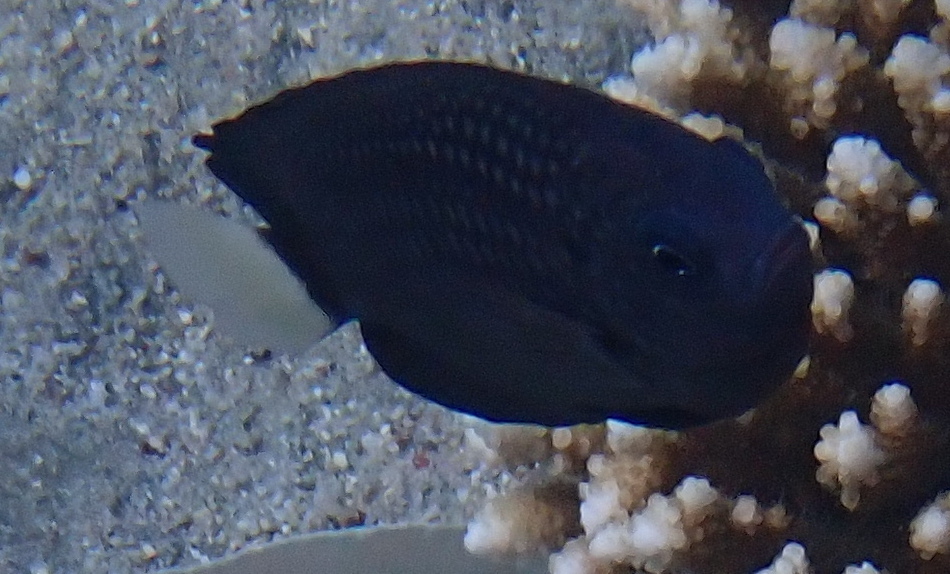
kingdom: Animalia
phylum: Chordata
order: Perciformes
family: Pomacentridae
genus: Pomacentrus
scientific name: Pomacentrus trichrourus
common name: Paletail damsel
